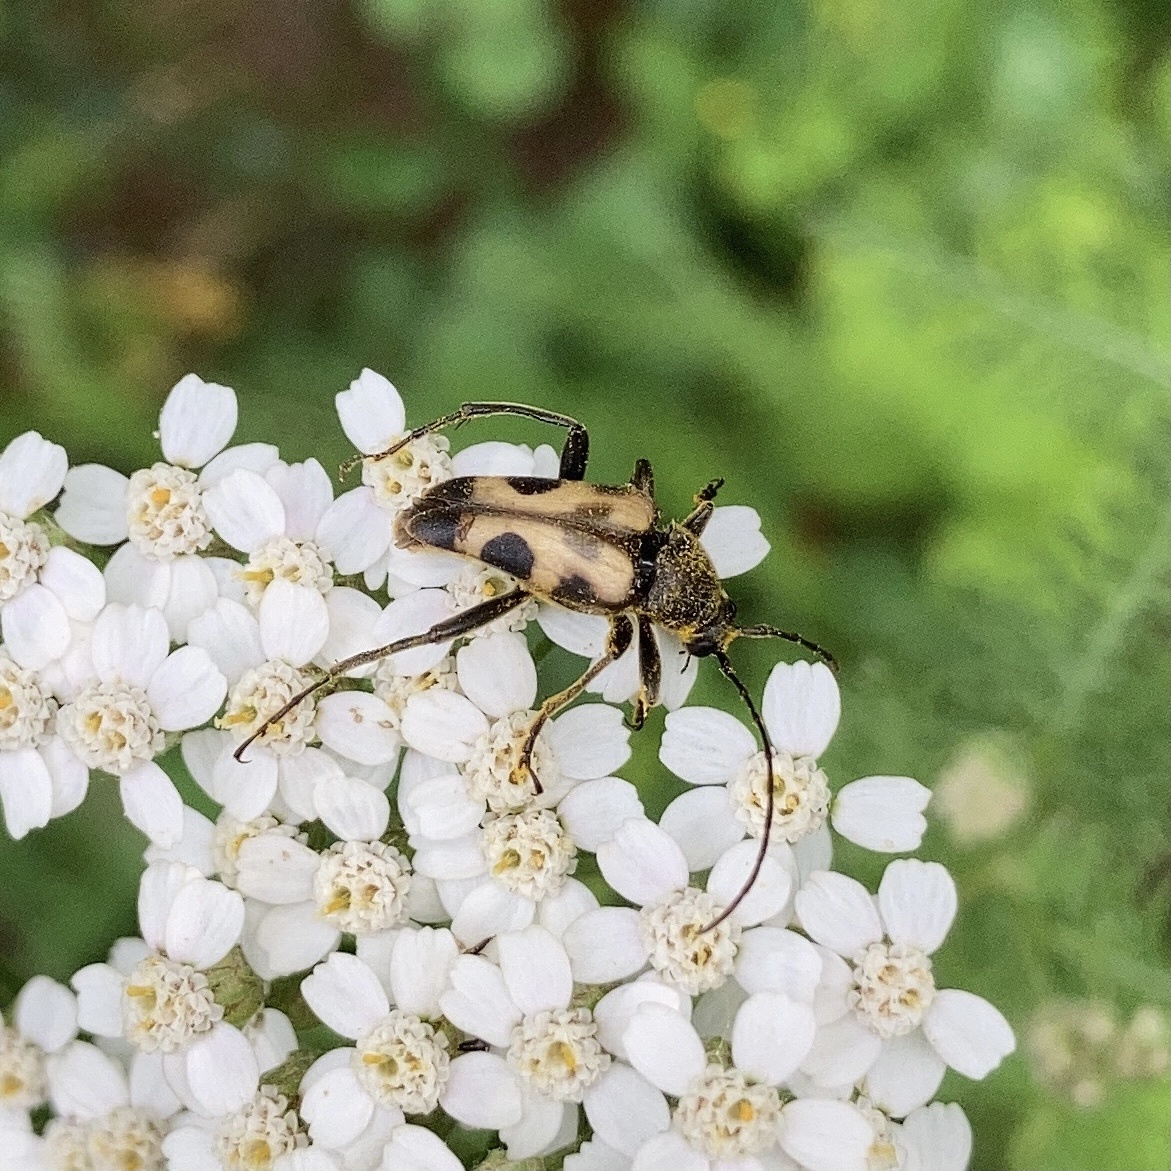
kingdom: Animalia
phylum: Arthropoda
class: Insecta
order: Coleoptera
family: Cerambycidae
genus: Judolia
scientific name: Judolia cordifera
